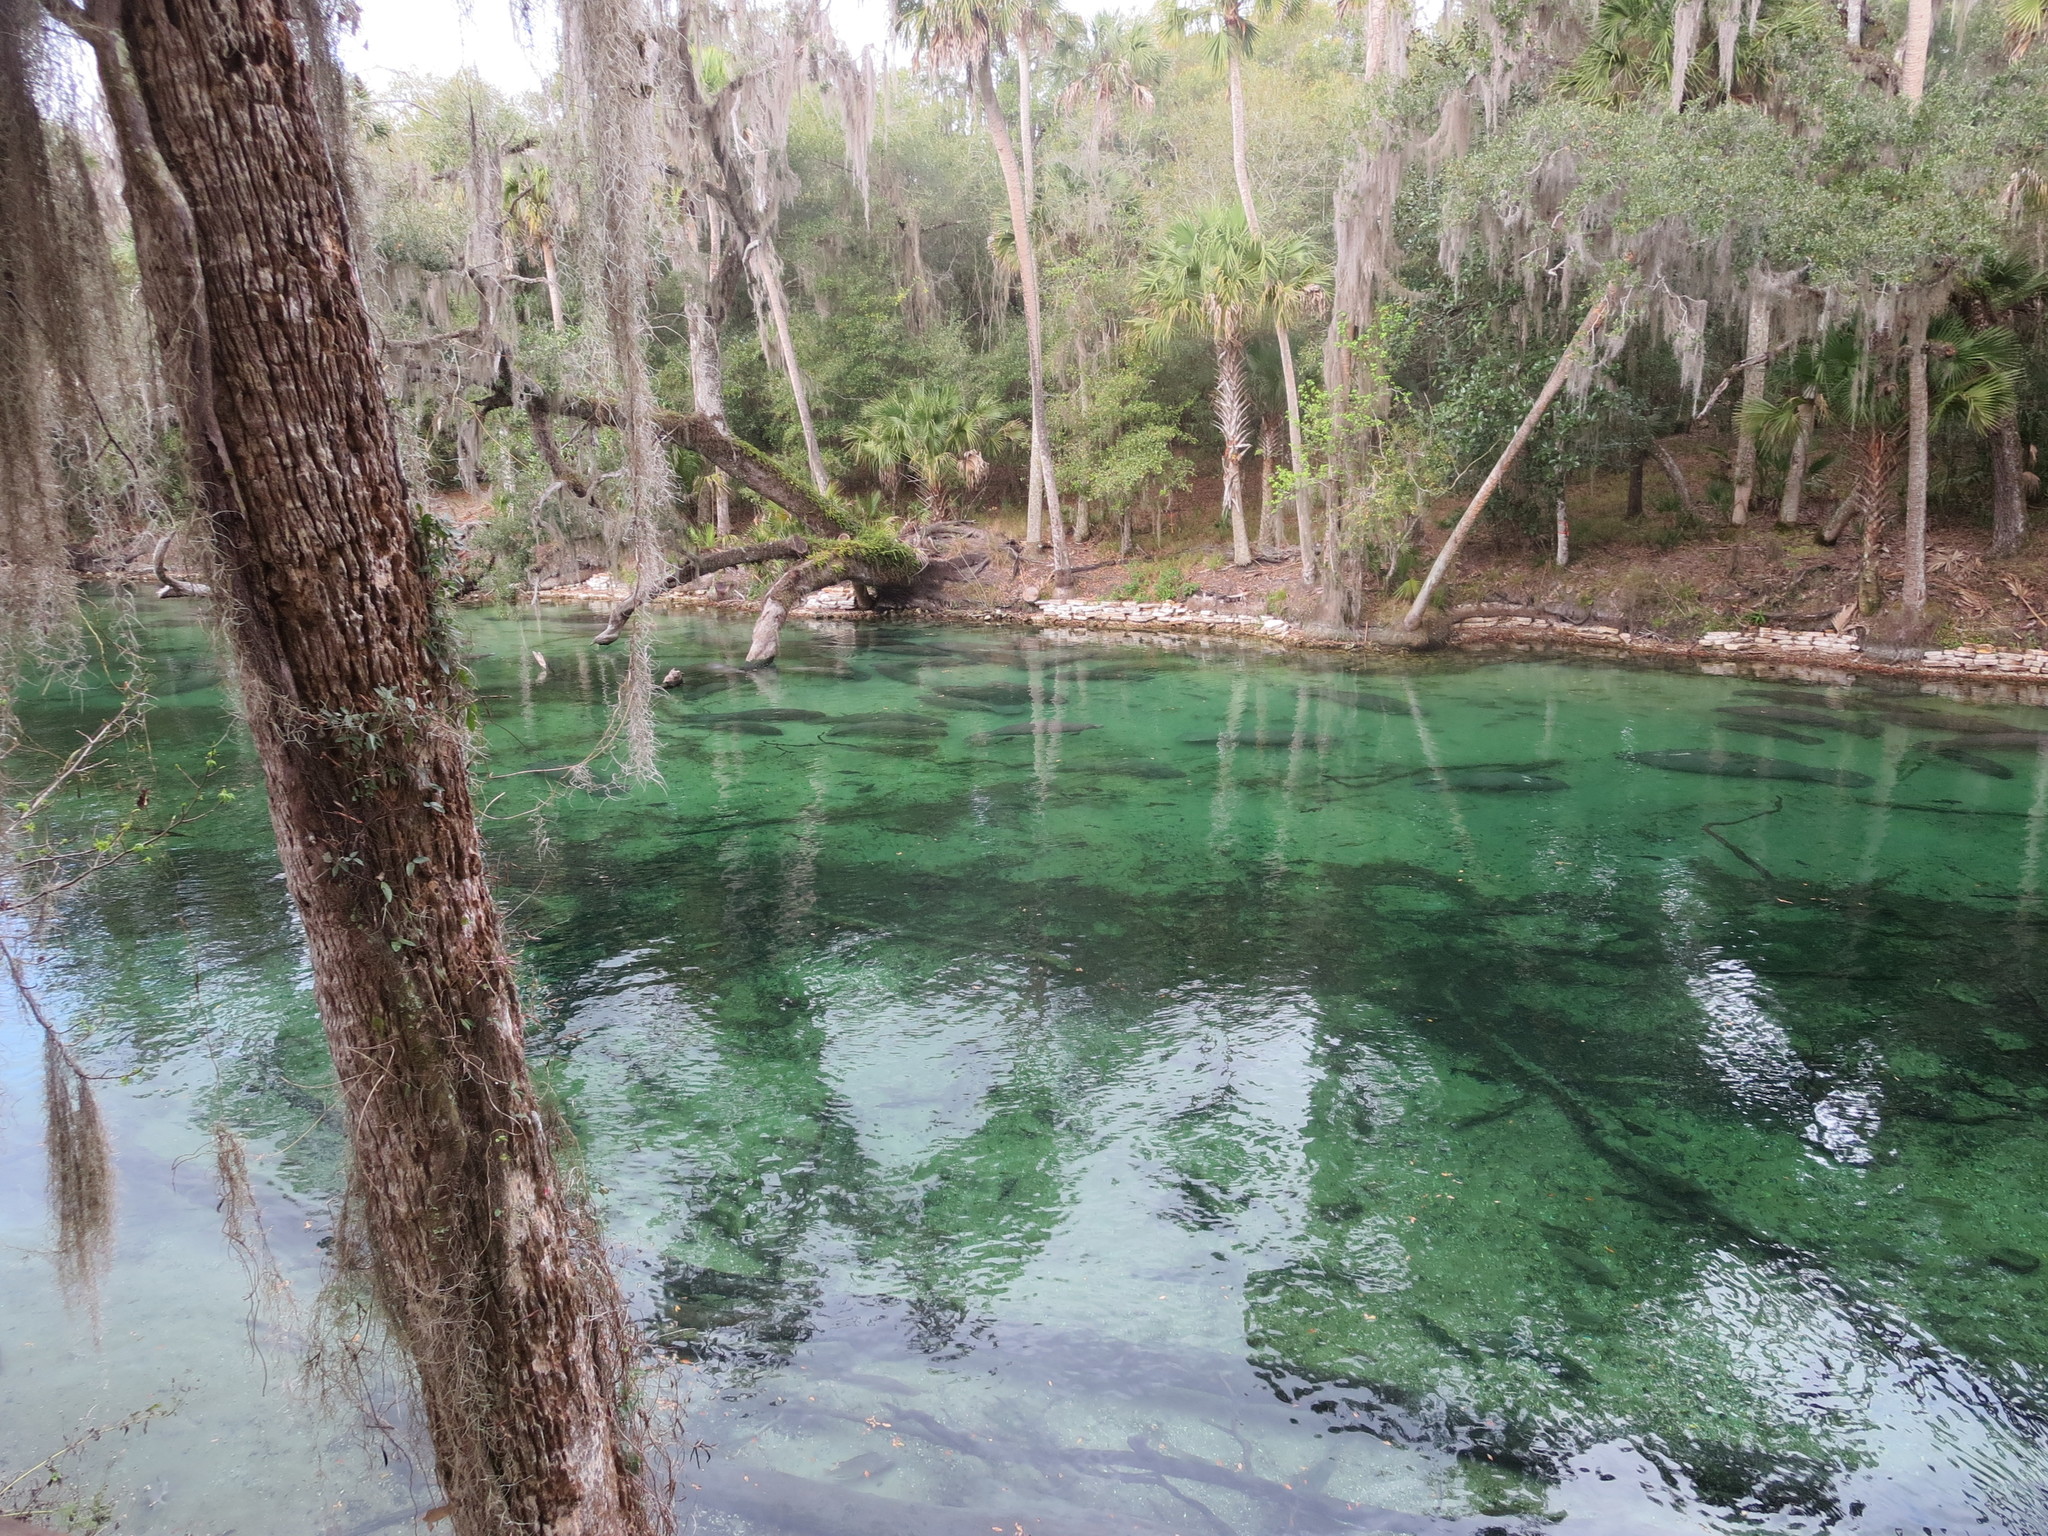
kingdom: Animalia
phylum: Chordata
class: Mammalia
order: Sirenia
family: Trichechidae
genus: Trichechus
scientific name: Trichechus manatus
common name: West indian manatee
